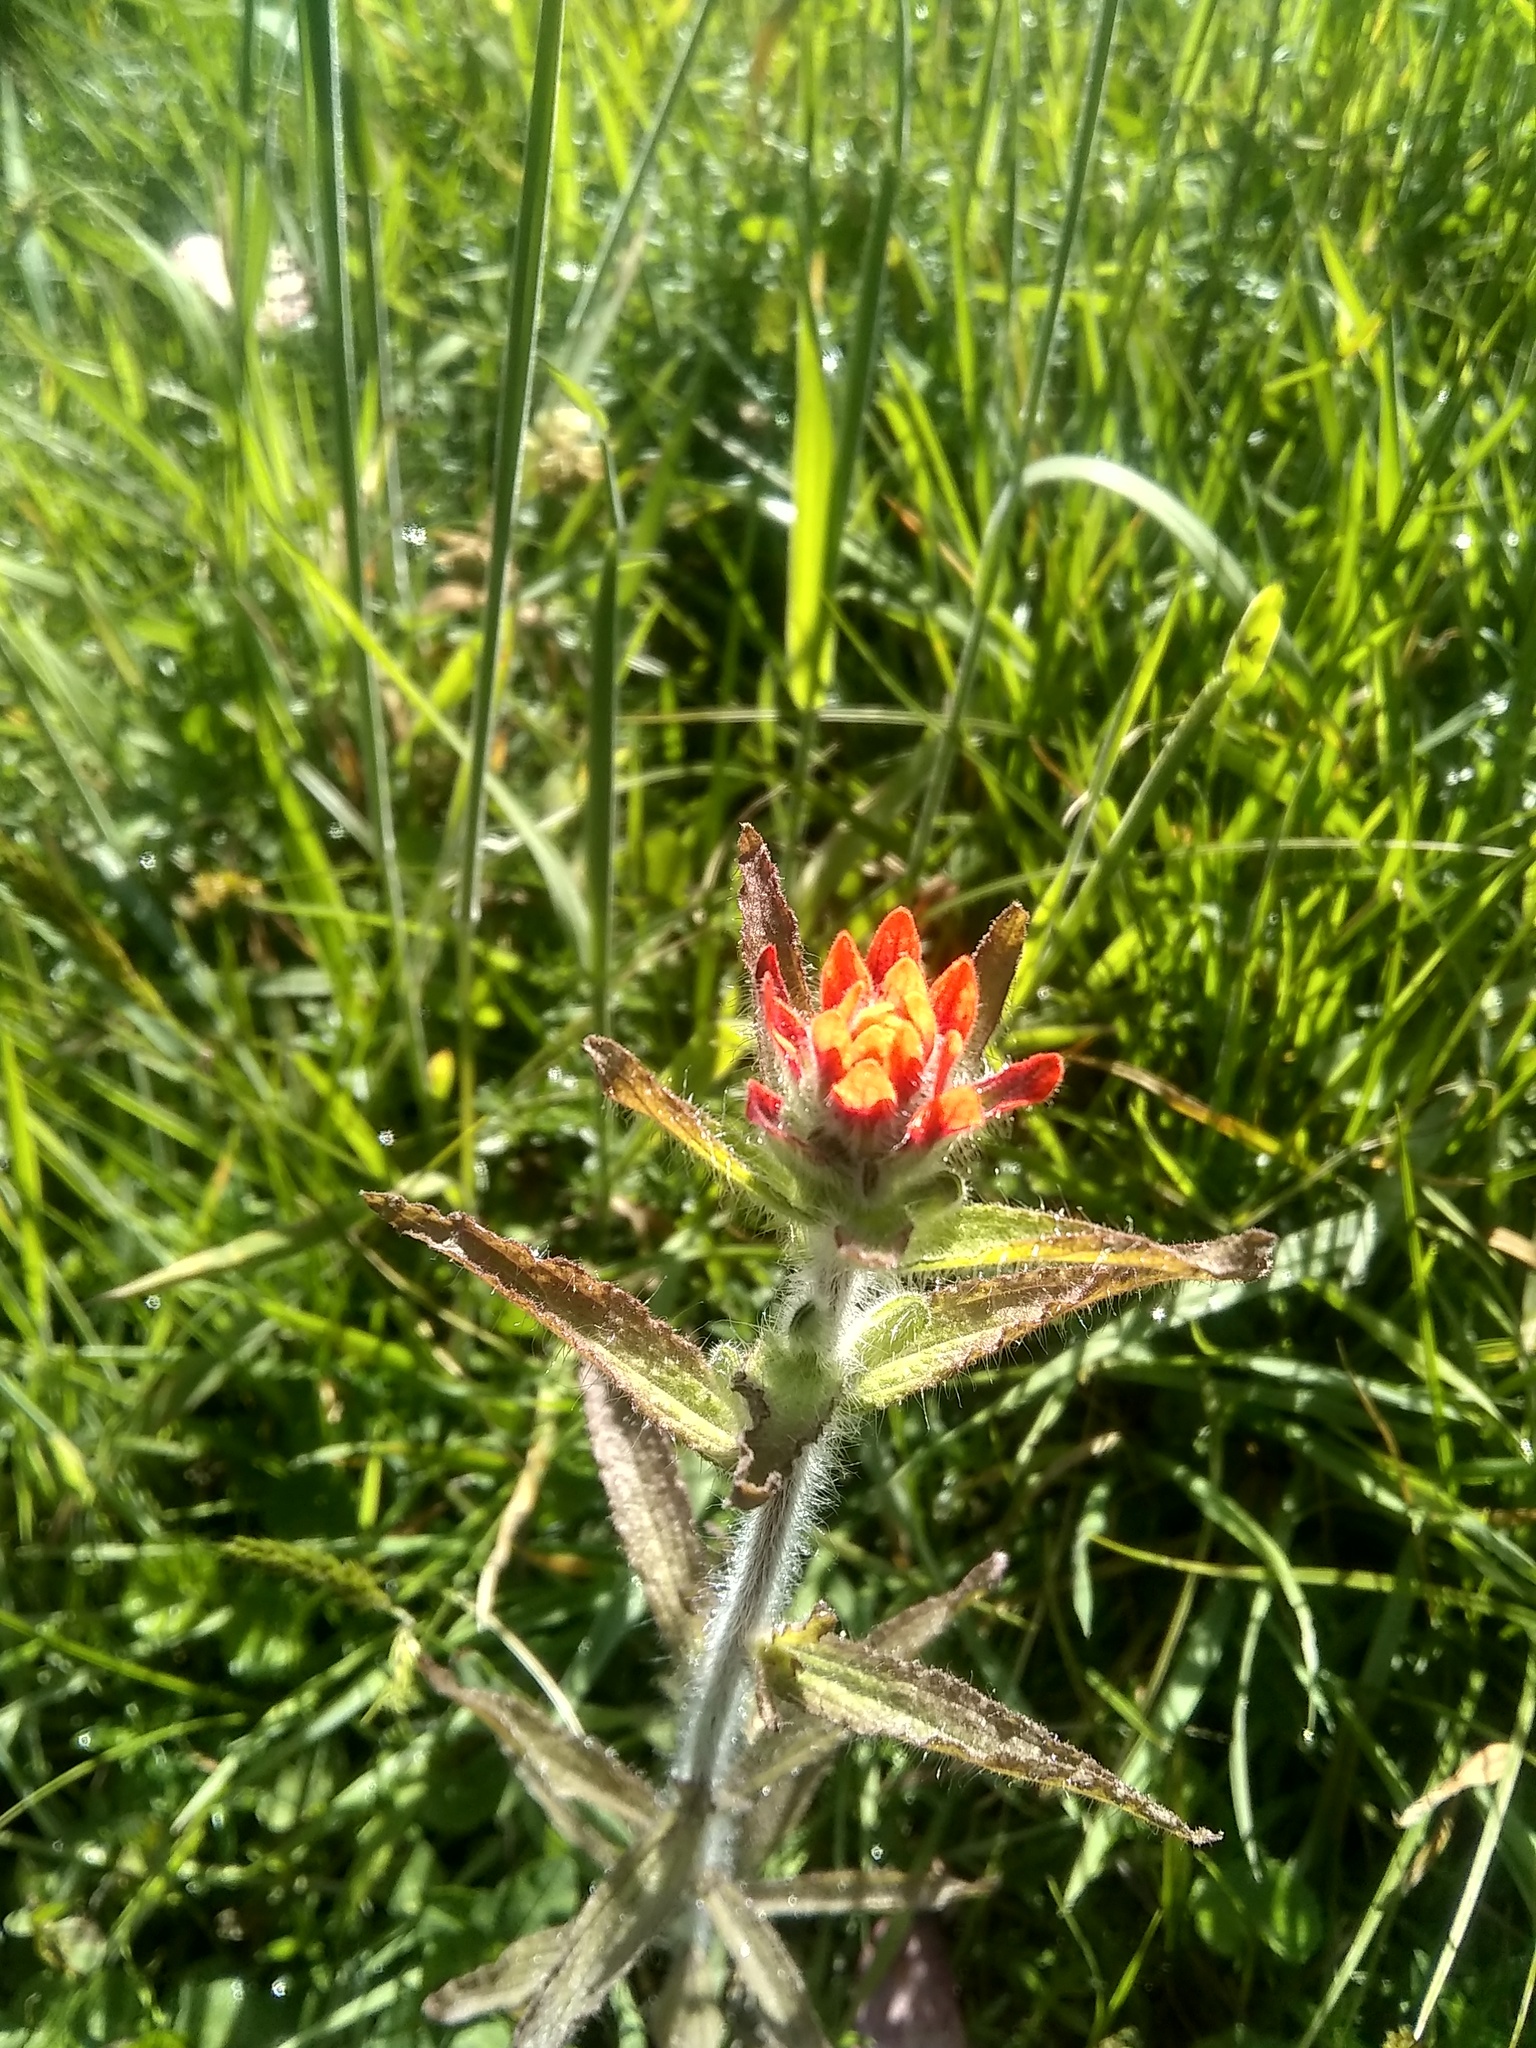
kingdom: Plantae
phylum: Tracheophyta
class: Magnoliopsida
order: Lamiales
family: Orobanchaceae
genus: Castilleja
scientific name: Castilleja arvensis
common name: Indian paintbrush
